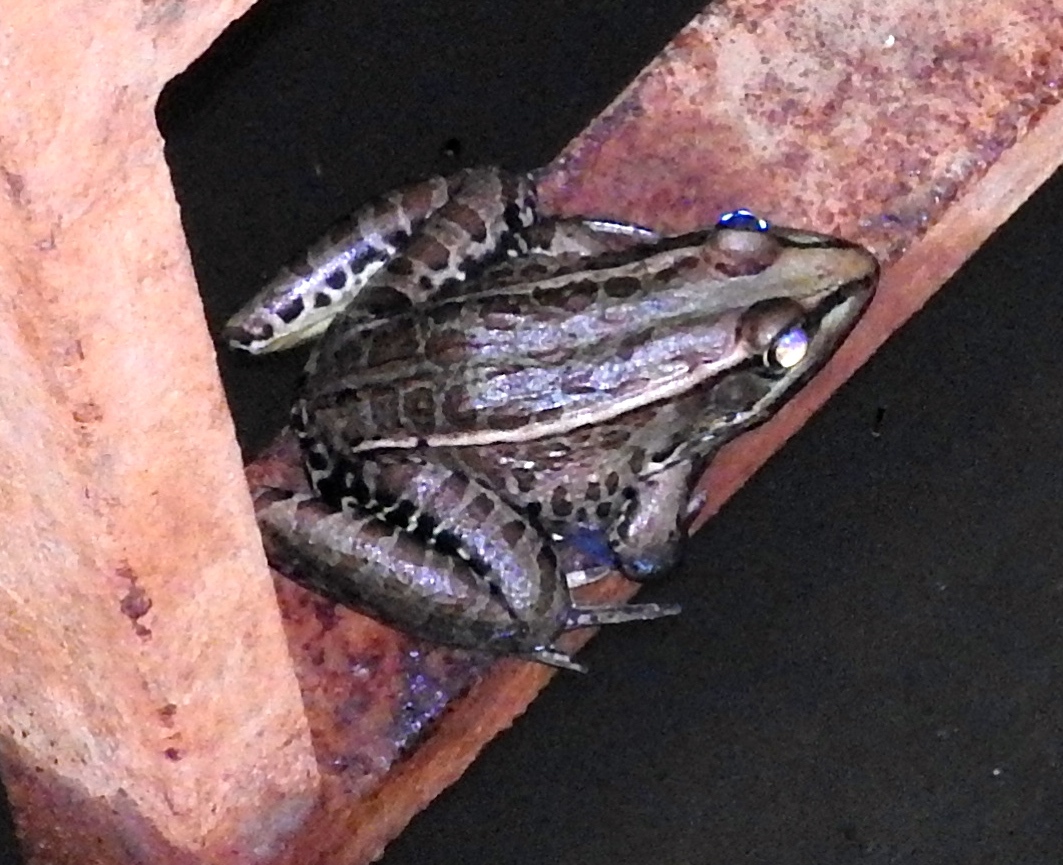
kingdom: Animalia
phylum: Chordata
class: Amphibia
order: Anura
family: Ranidae
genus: Lithobates
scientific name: Lithobates magnaocularis
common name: Northwest mexico leopard frog
